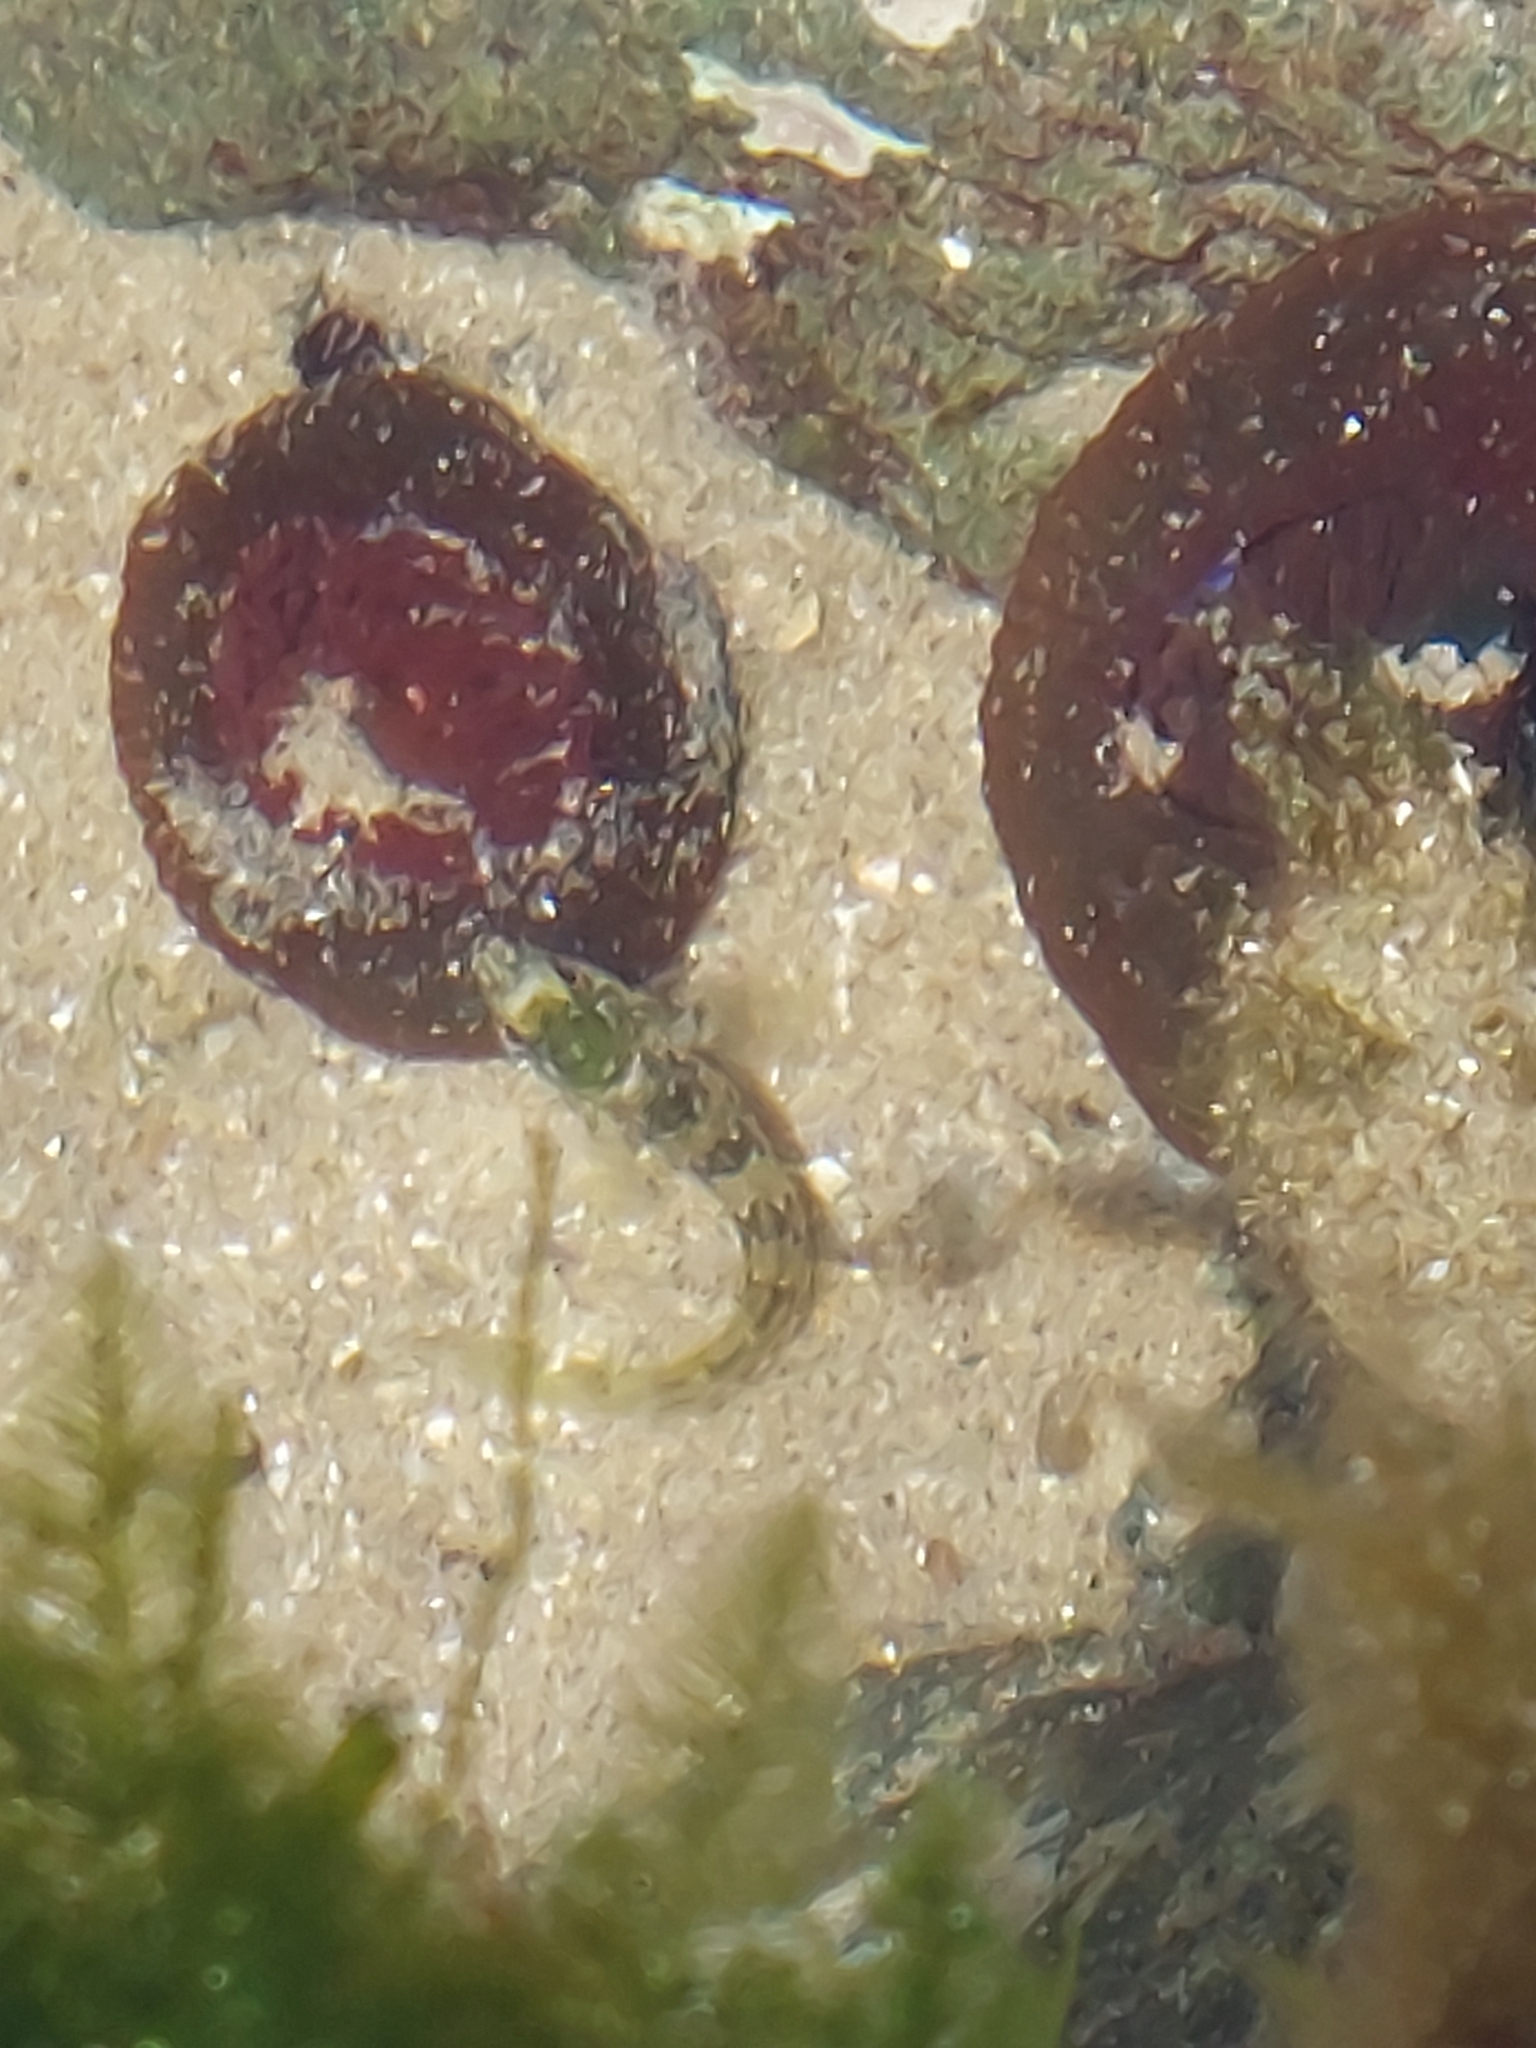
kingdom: Animalia
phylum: Chordata
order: Perciformes
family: Blenniidae
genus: Lipophrys
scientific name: Lipophrys pholis
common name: Shanny
